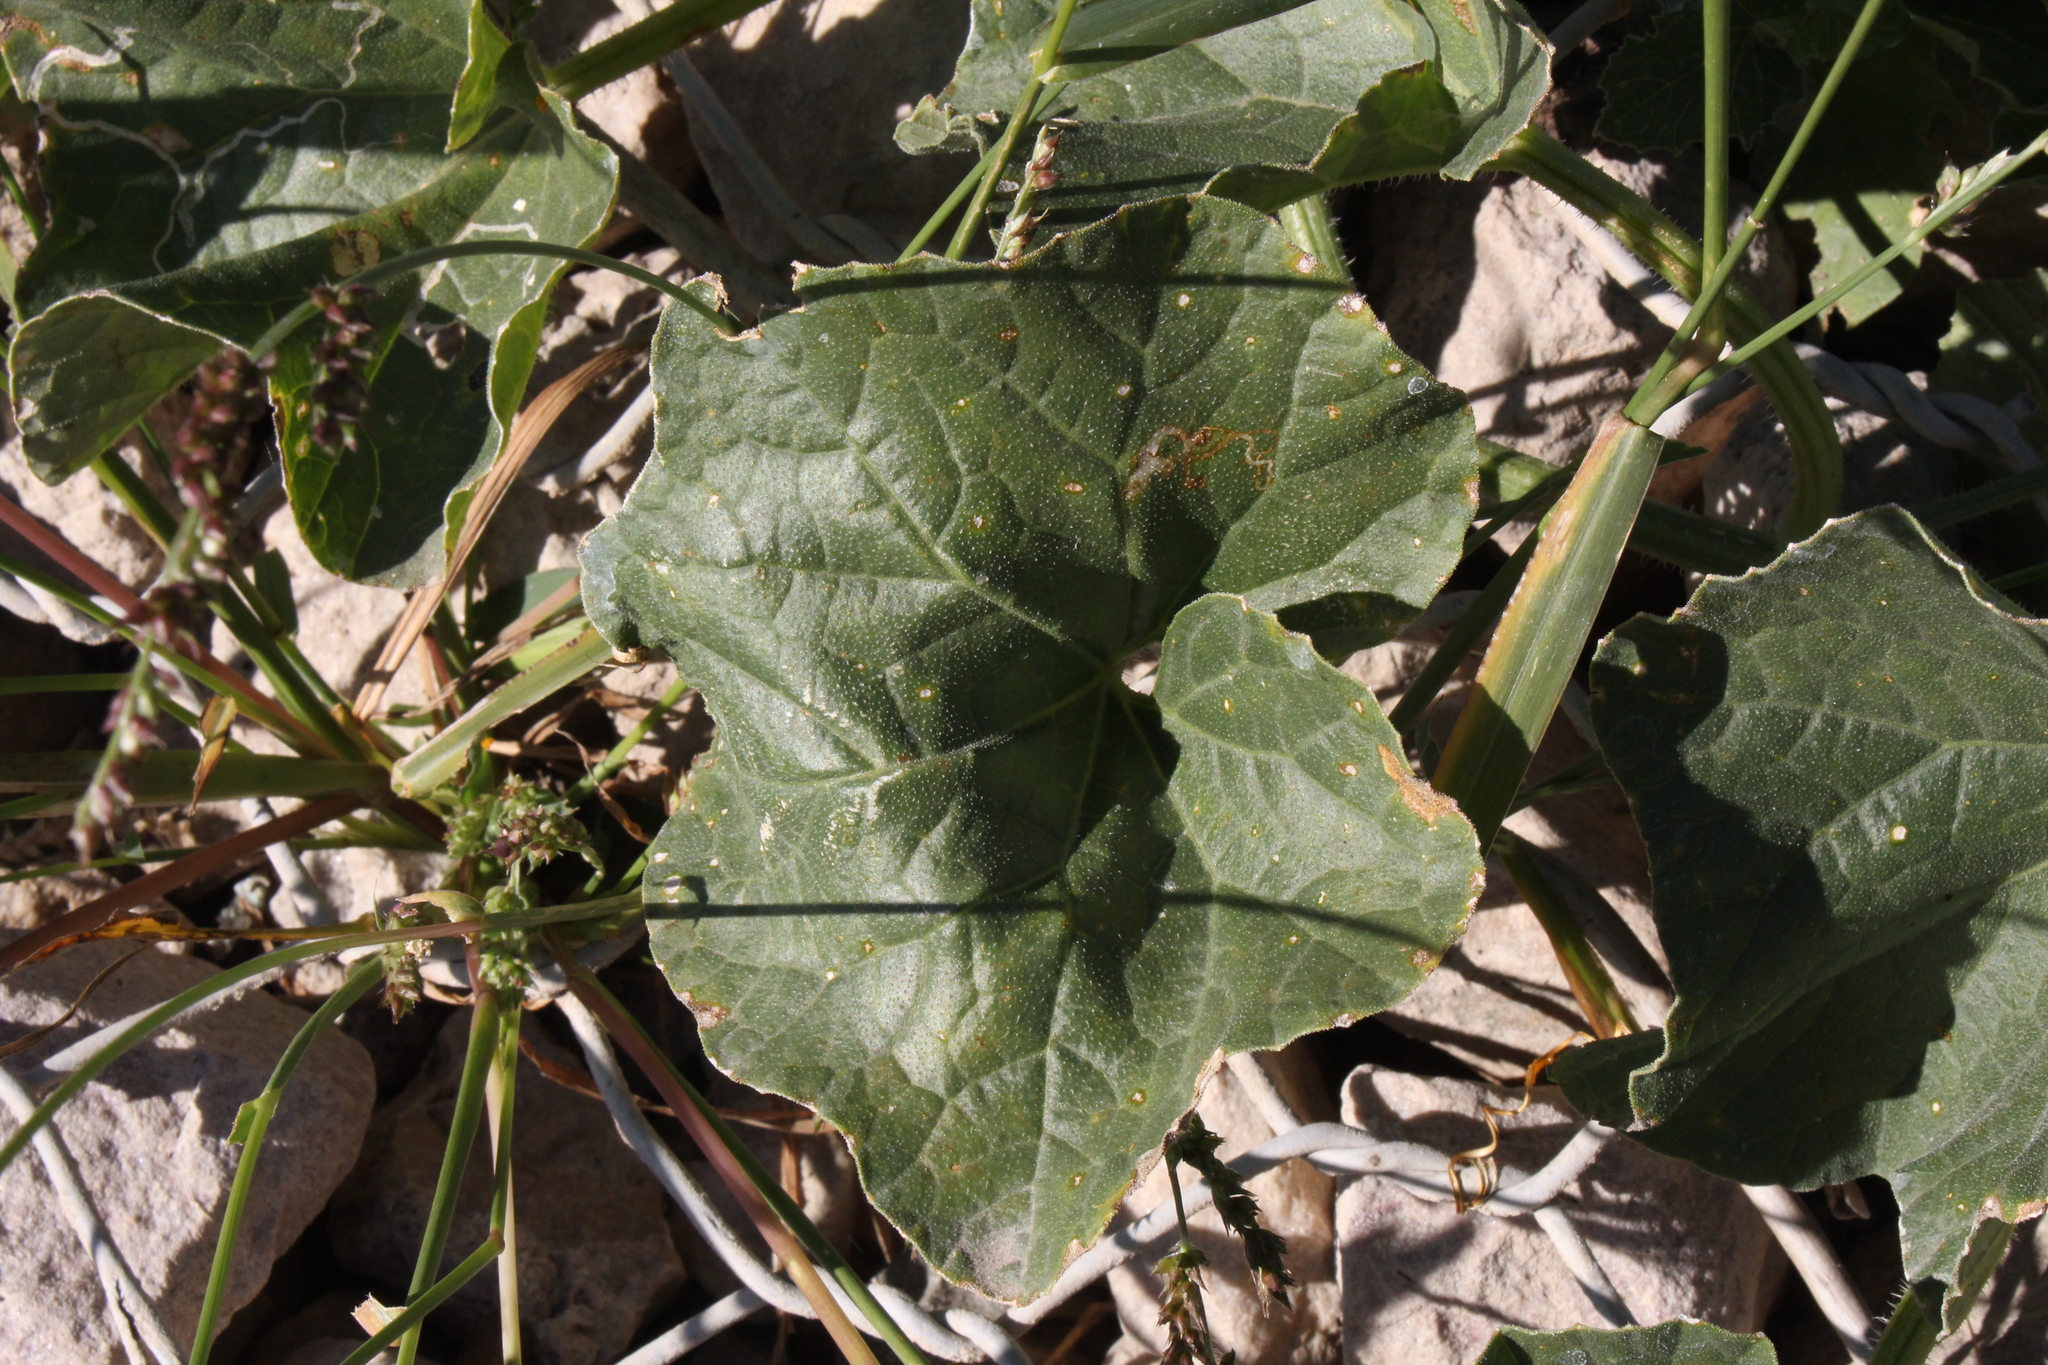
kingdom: Plantae
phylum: Tracheophyta
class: Magnoliopsida
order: Cucurbitales
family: Cucurbitaceae
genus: Cucumis
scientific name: Cucumis melo
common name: Melon
